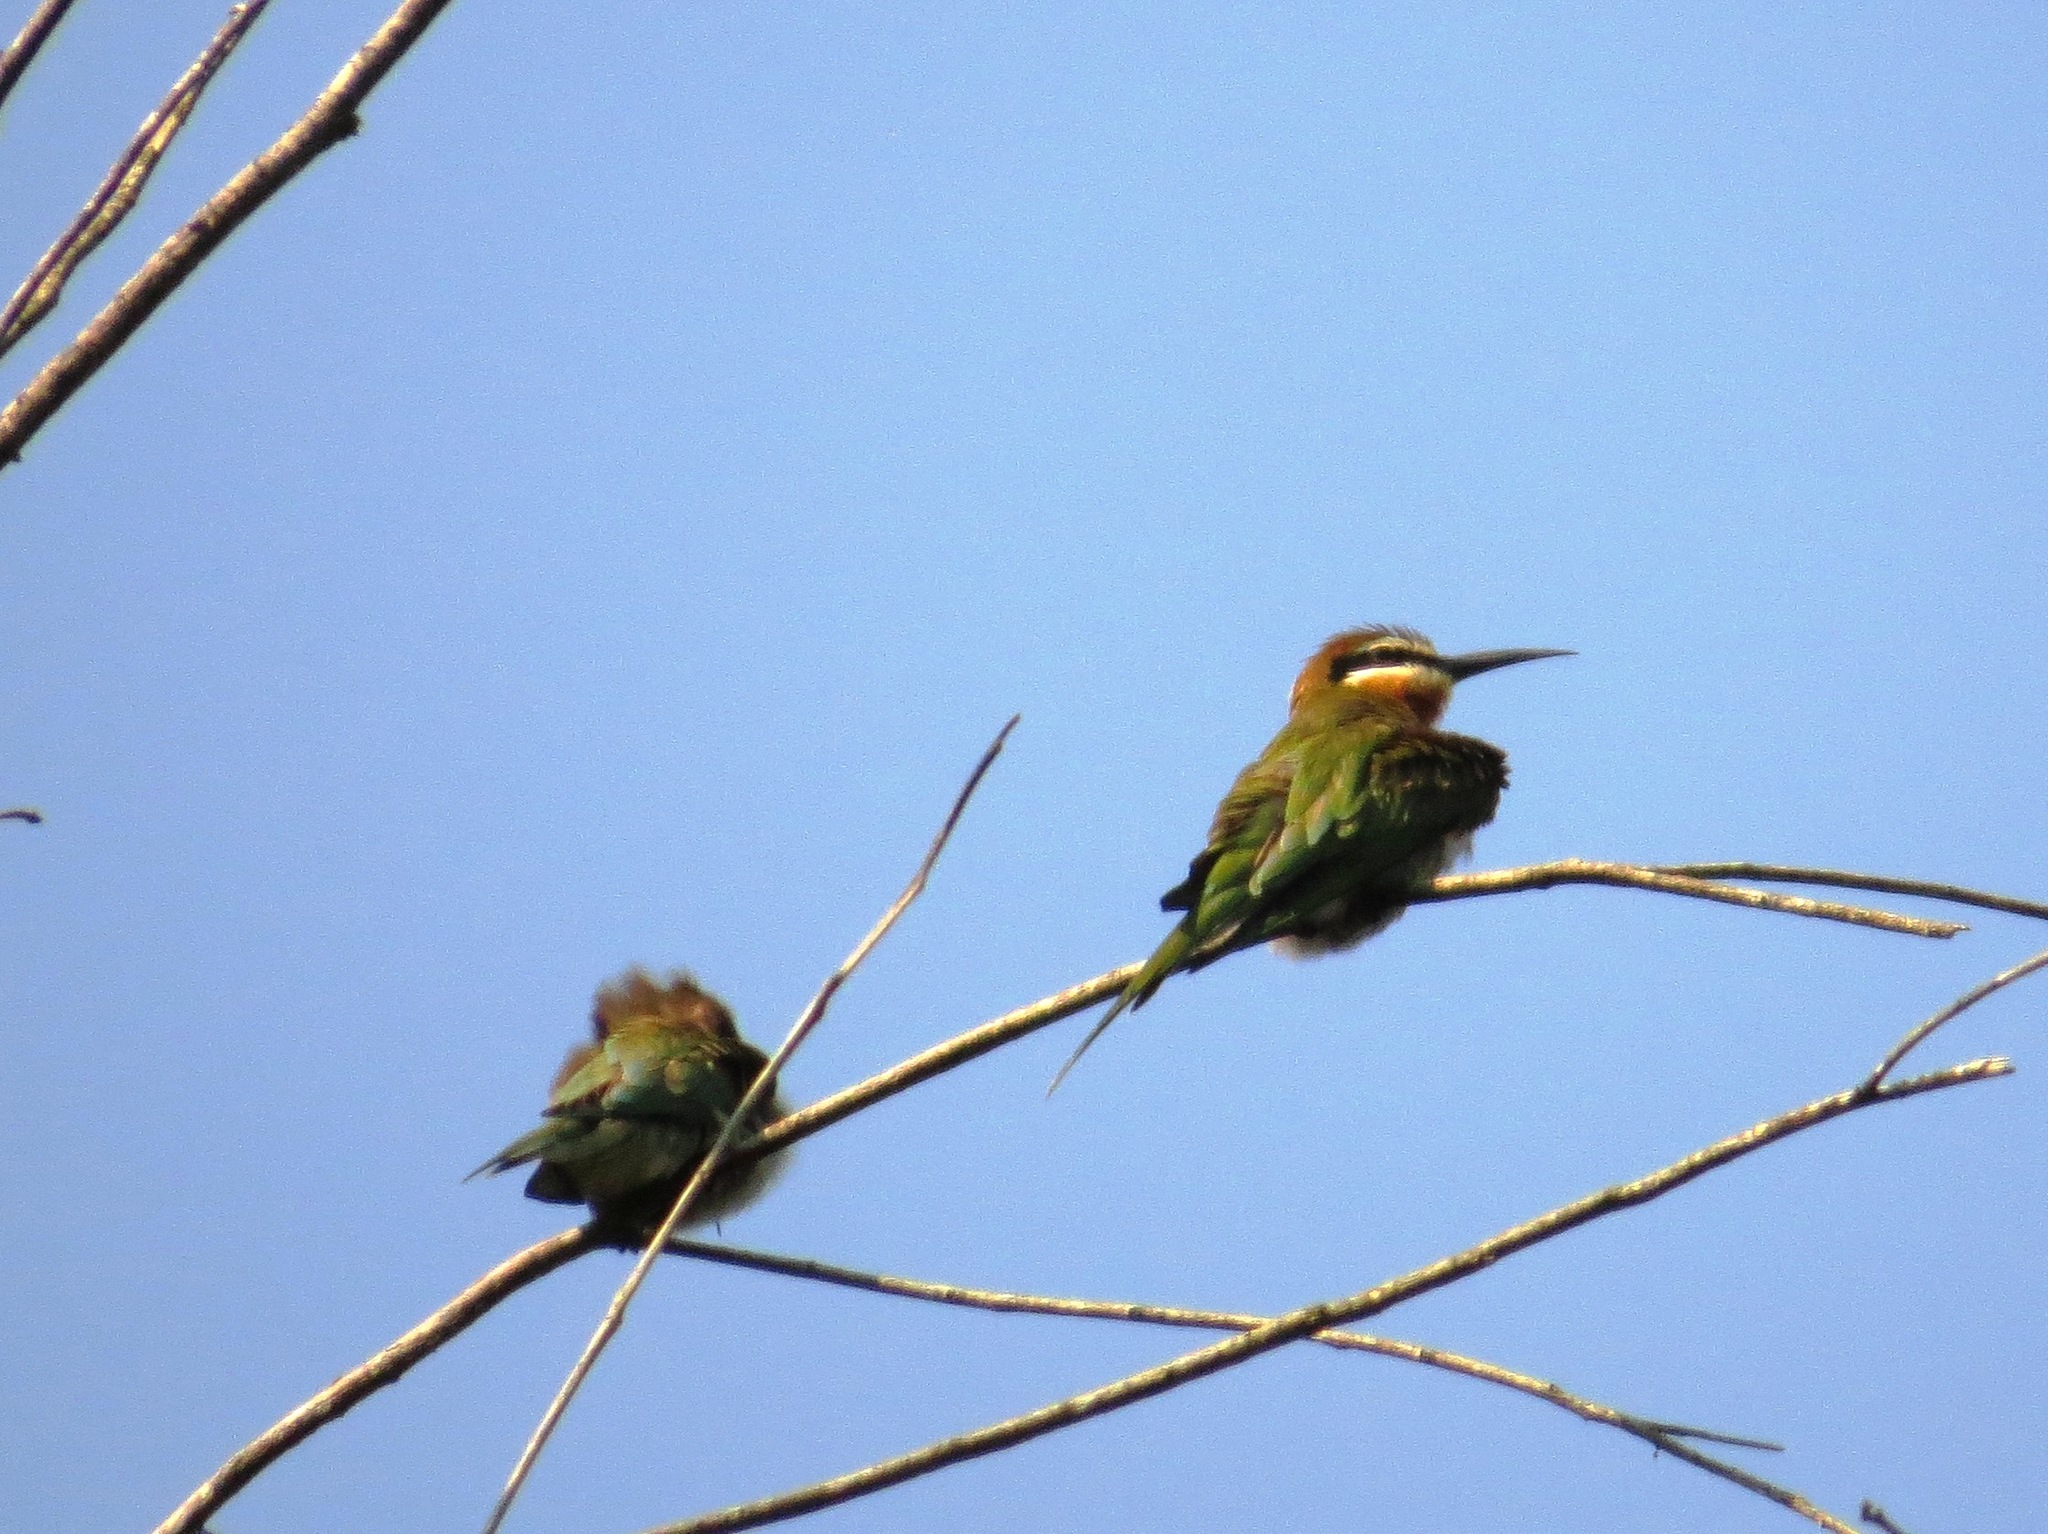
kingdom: Animalia
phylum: Chordata
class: Aves
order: Coraciiformes
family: Meropidae
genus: Merops
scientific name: Merops superciliosus
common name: Olive bee-eater
